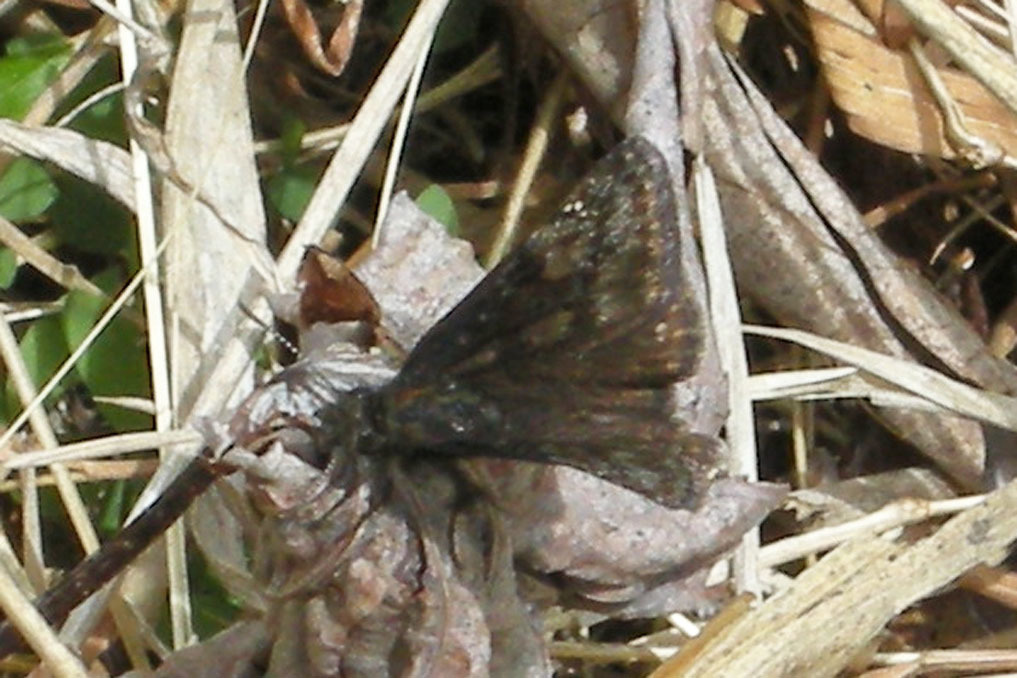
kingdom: Animalia
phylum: Arthropoda
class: Insecta
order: Lepidoptera
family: Hesperiidae
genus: Erynnis
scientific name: Erynnis baptisiae
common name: Wild indigo duskywing
